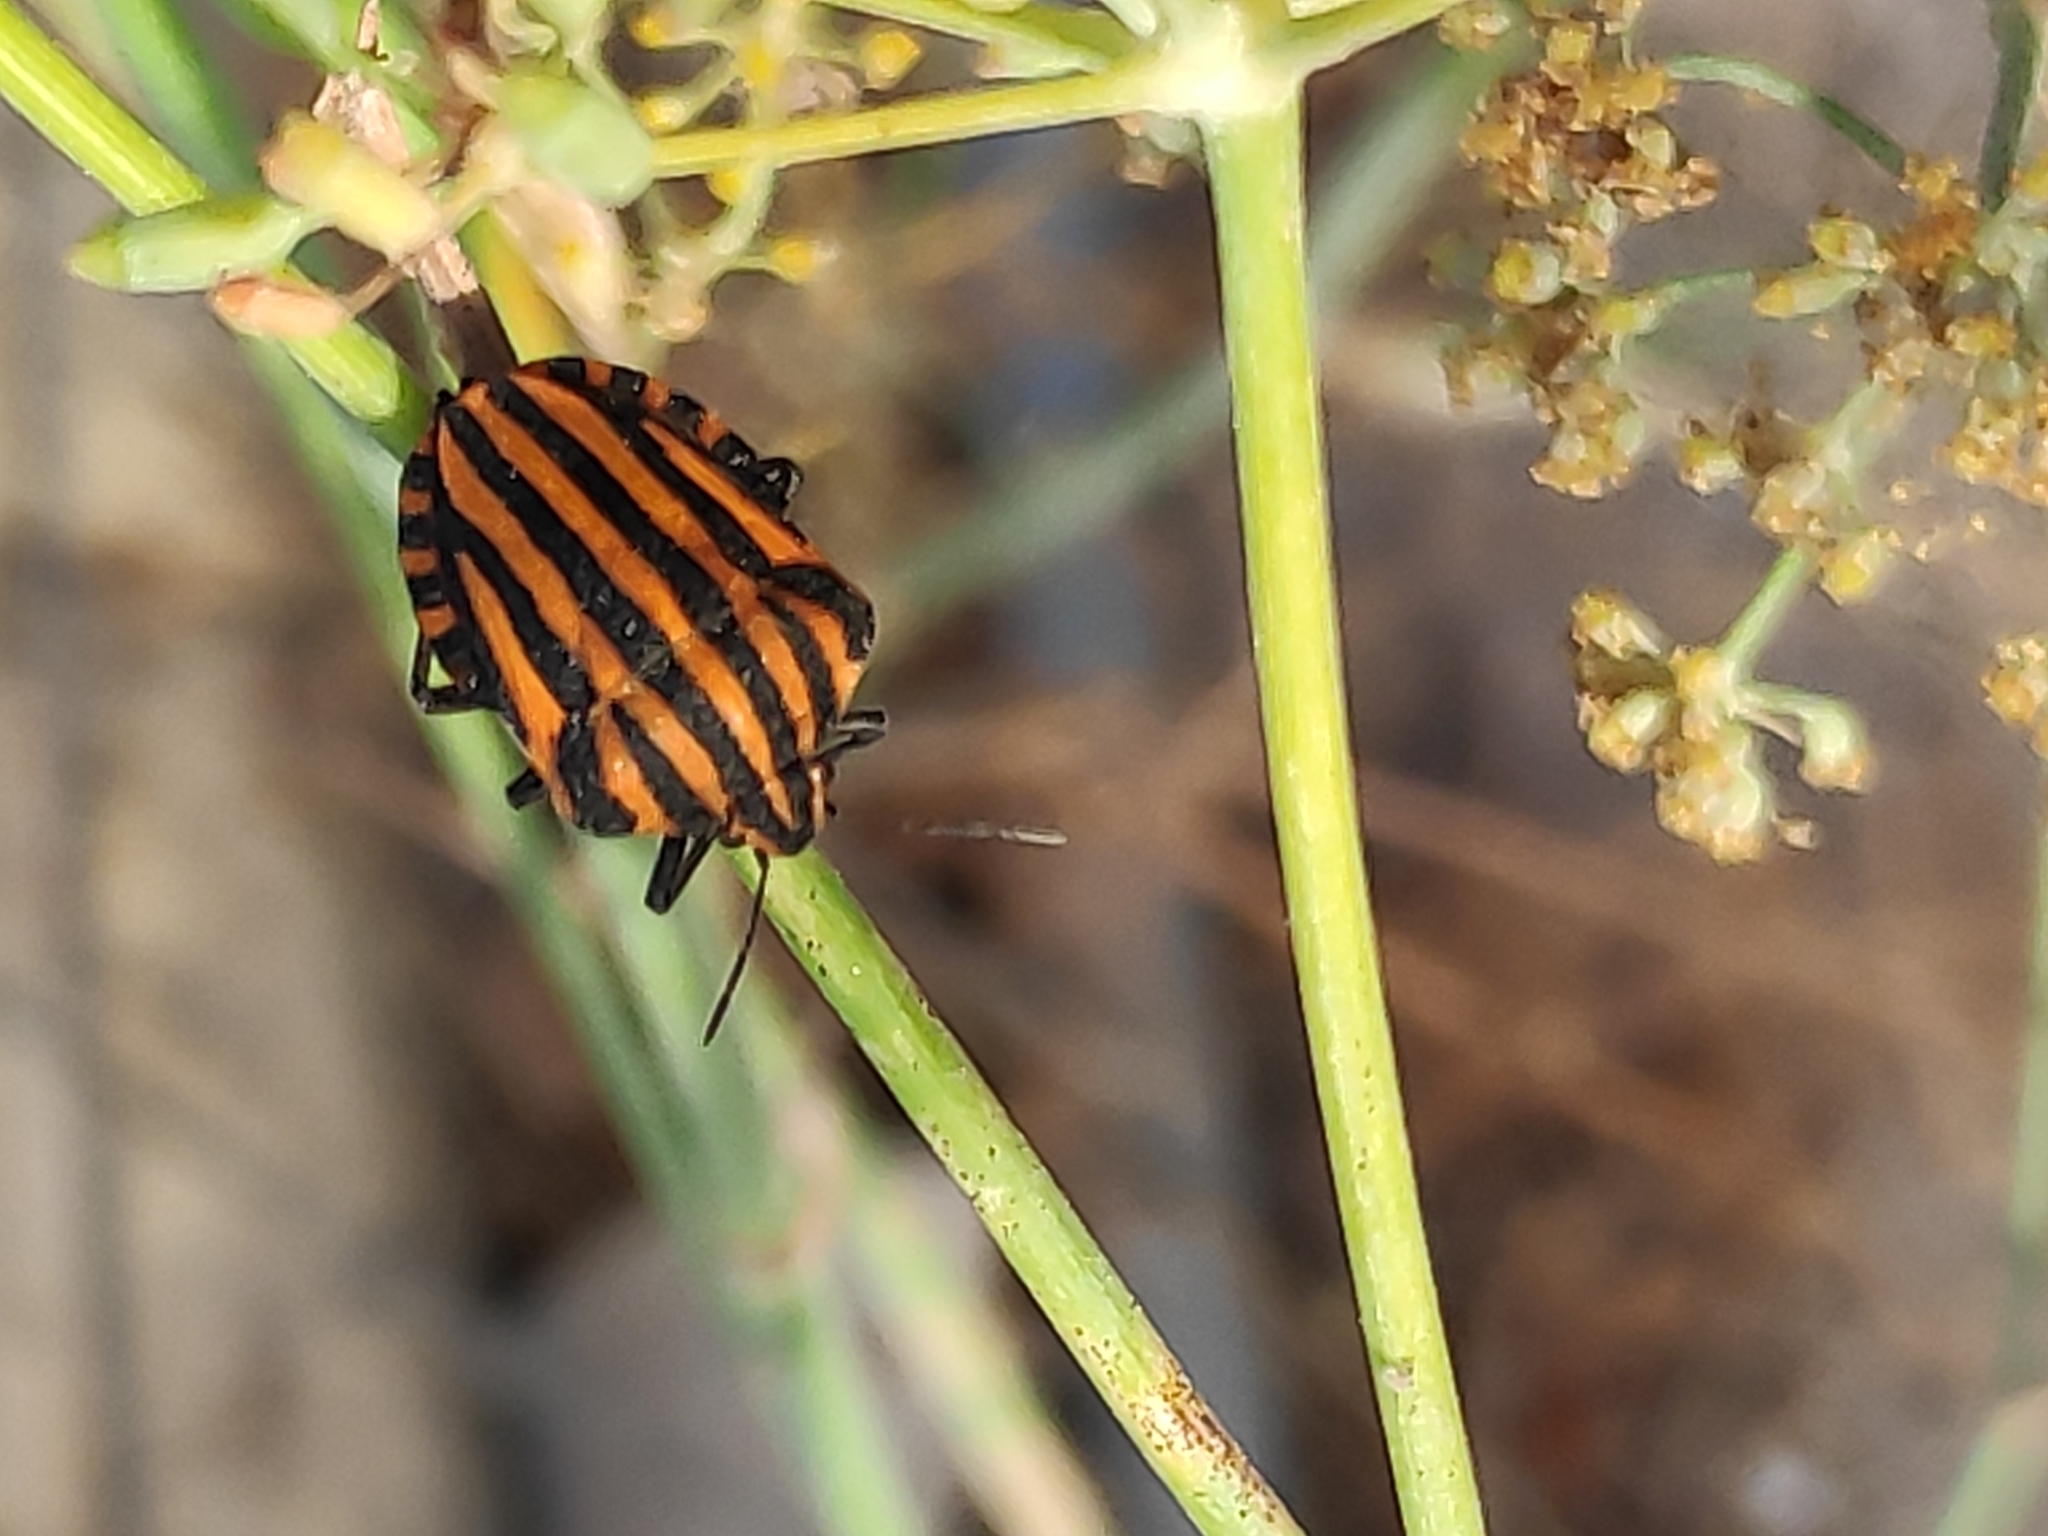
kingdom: Animalia
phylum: Arthropoda
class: Insecta
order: Hemiptera
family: Pentatomidae
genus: Graphosoma
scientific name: Graphosoma lineatum
